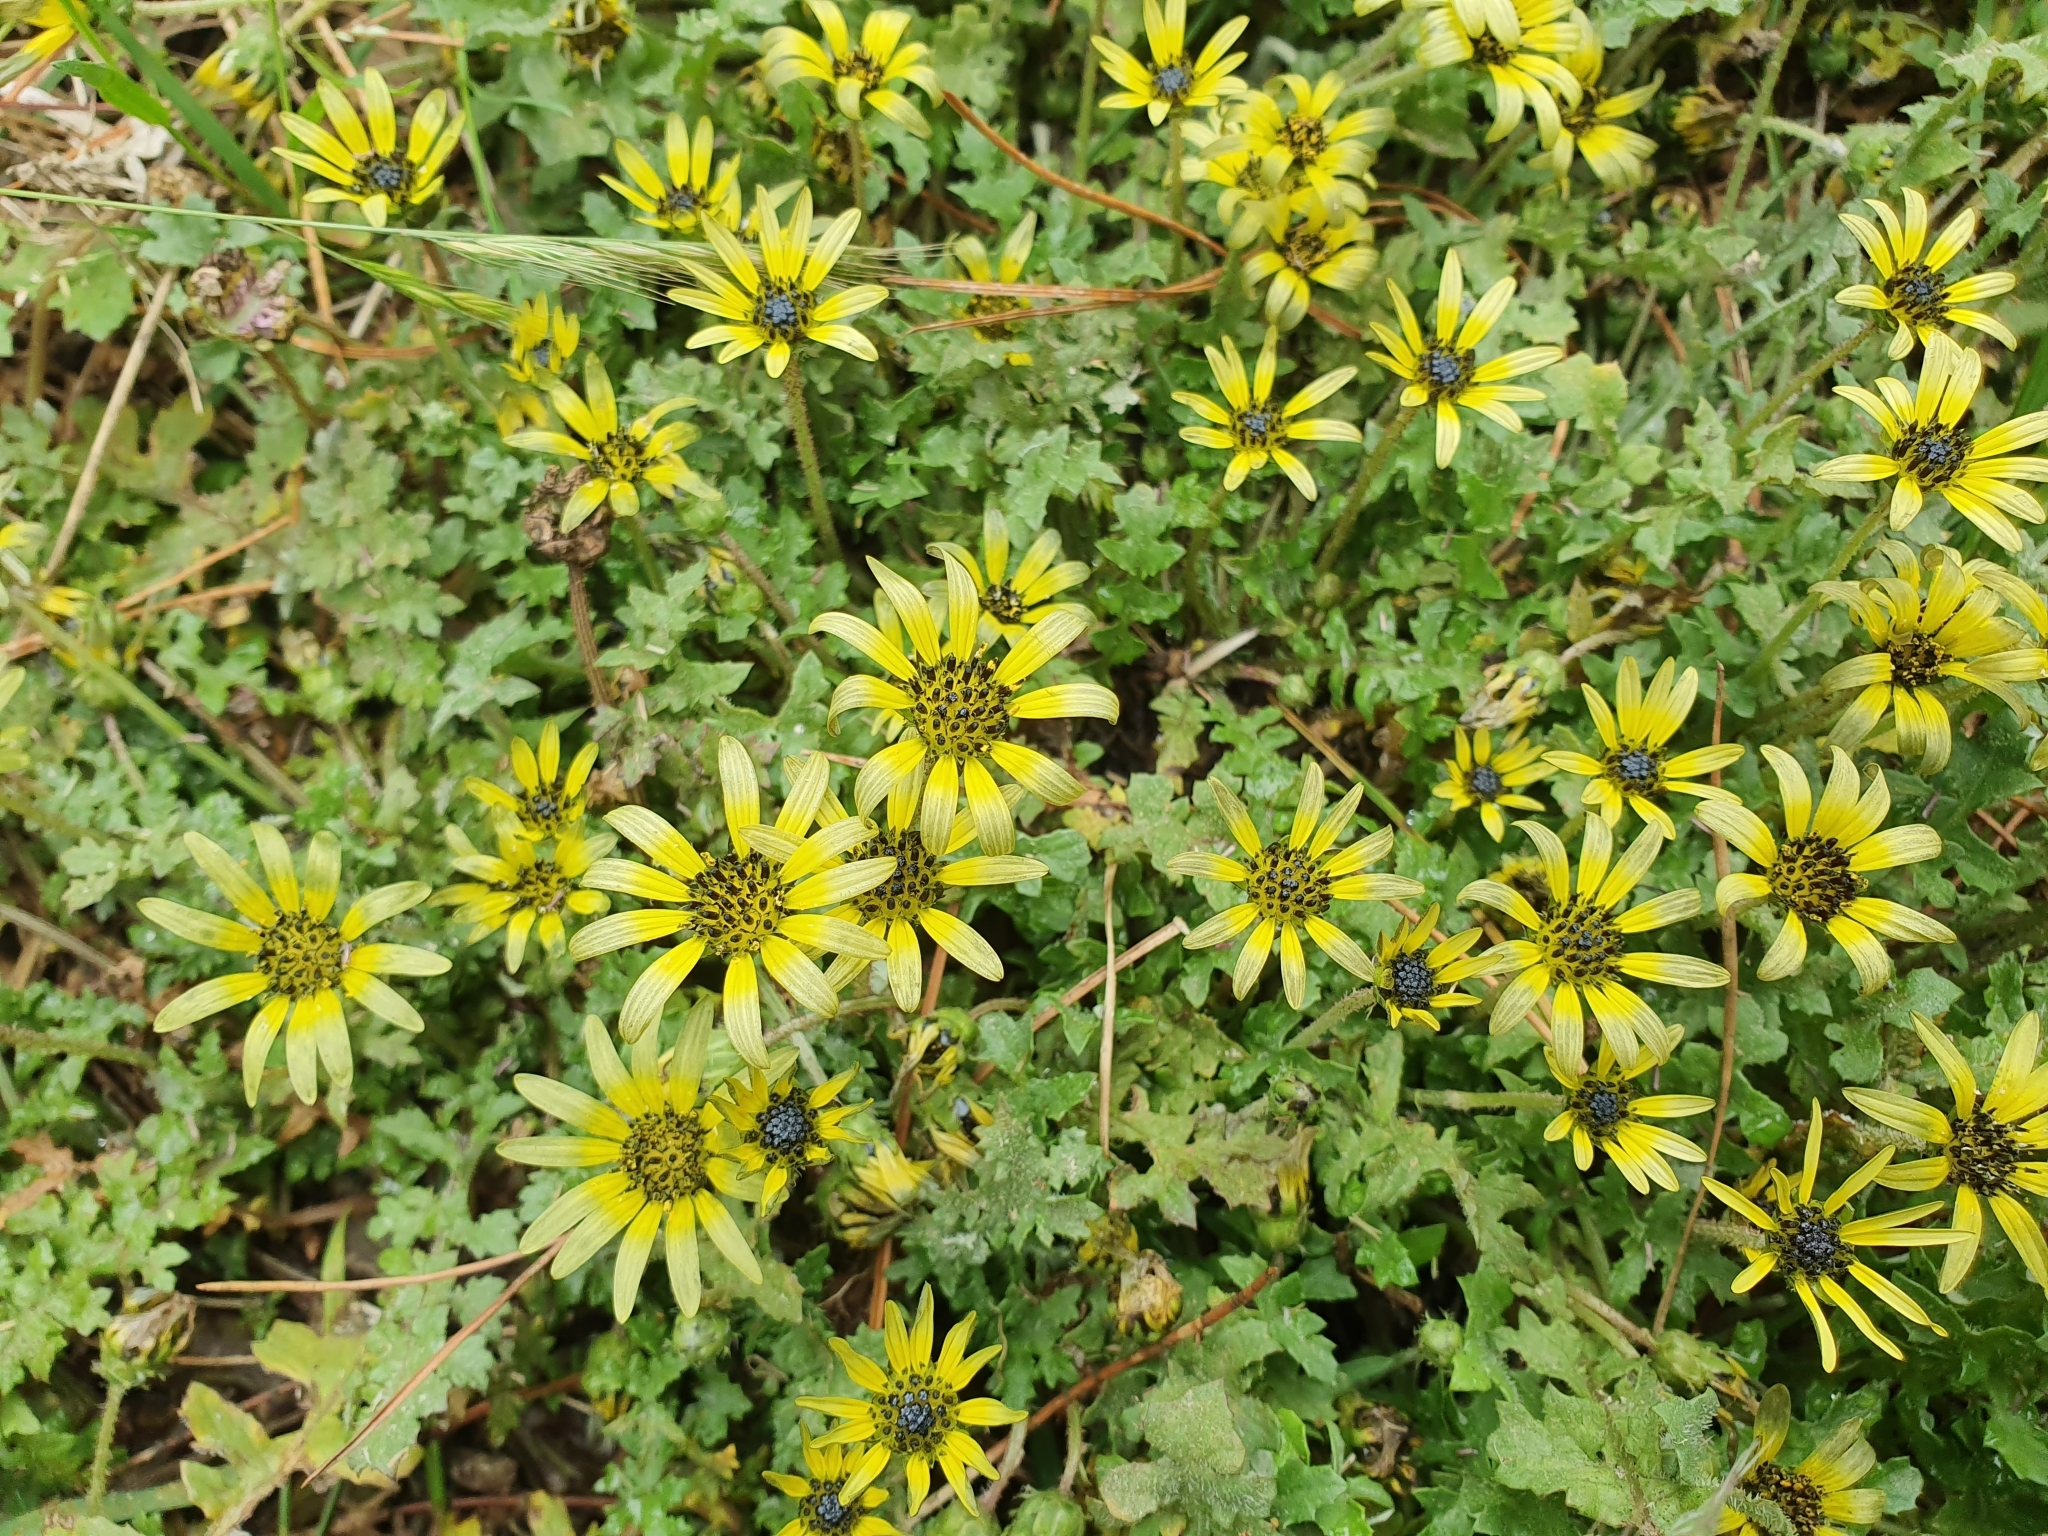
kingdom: Plantae
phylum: Tracheophyta
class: Magnoliopsida
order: Asterales
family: Asteraceae
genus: Arctotheca
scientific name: Arctotheca calendula
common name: Capeweed
